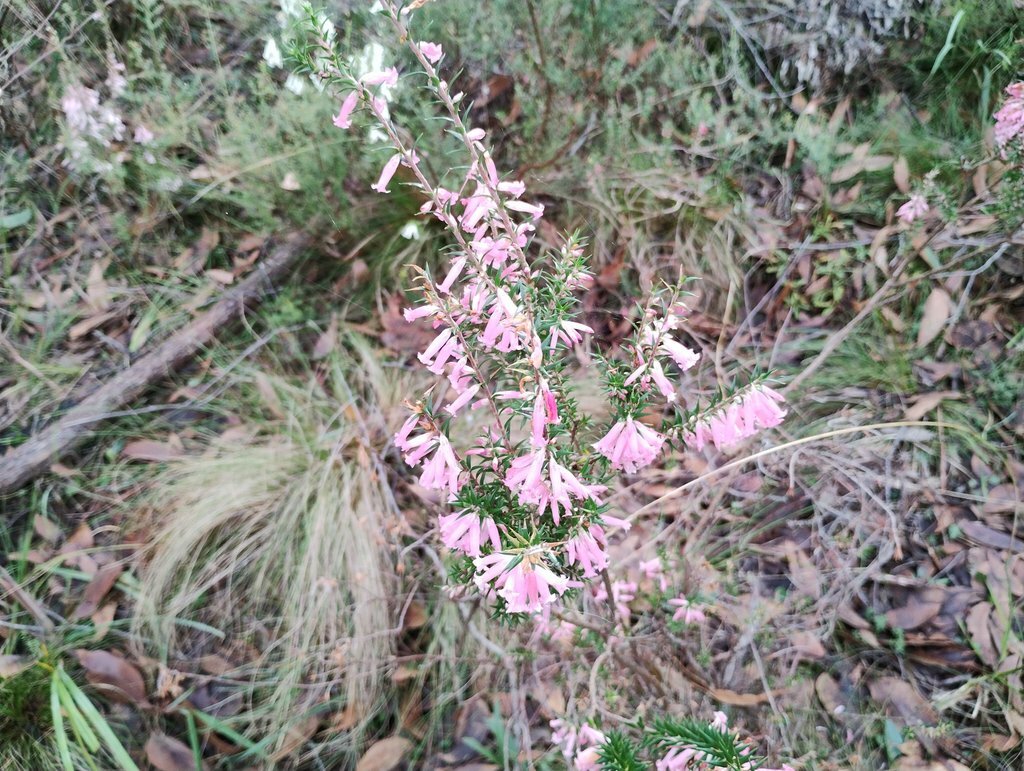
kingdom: Plantae
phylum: Tracheophyta
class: Magnoliopsida
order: Ericales
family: Ericaceae
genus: Epacris
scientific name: Epacris impressa
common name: Common-heath
